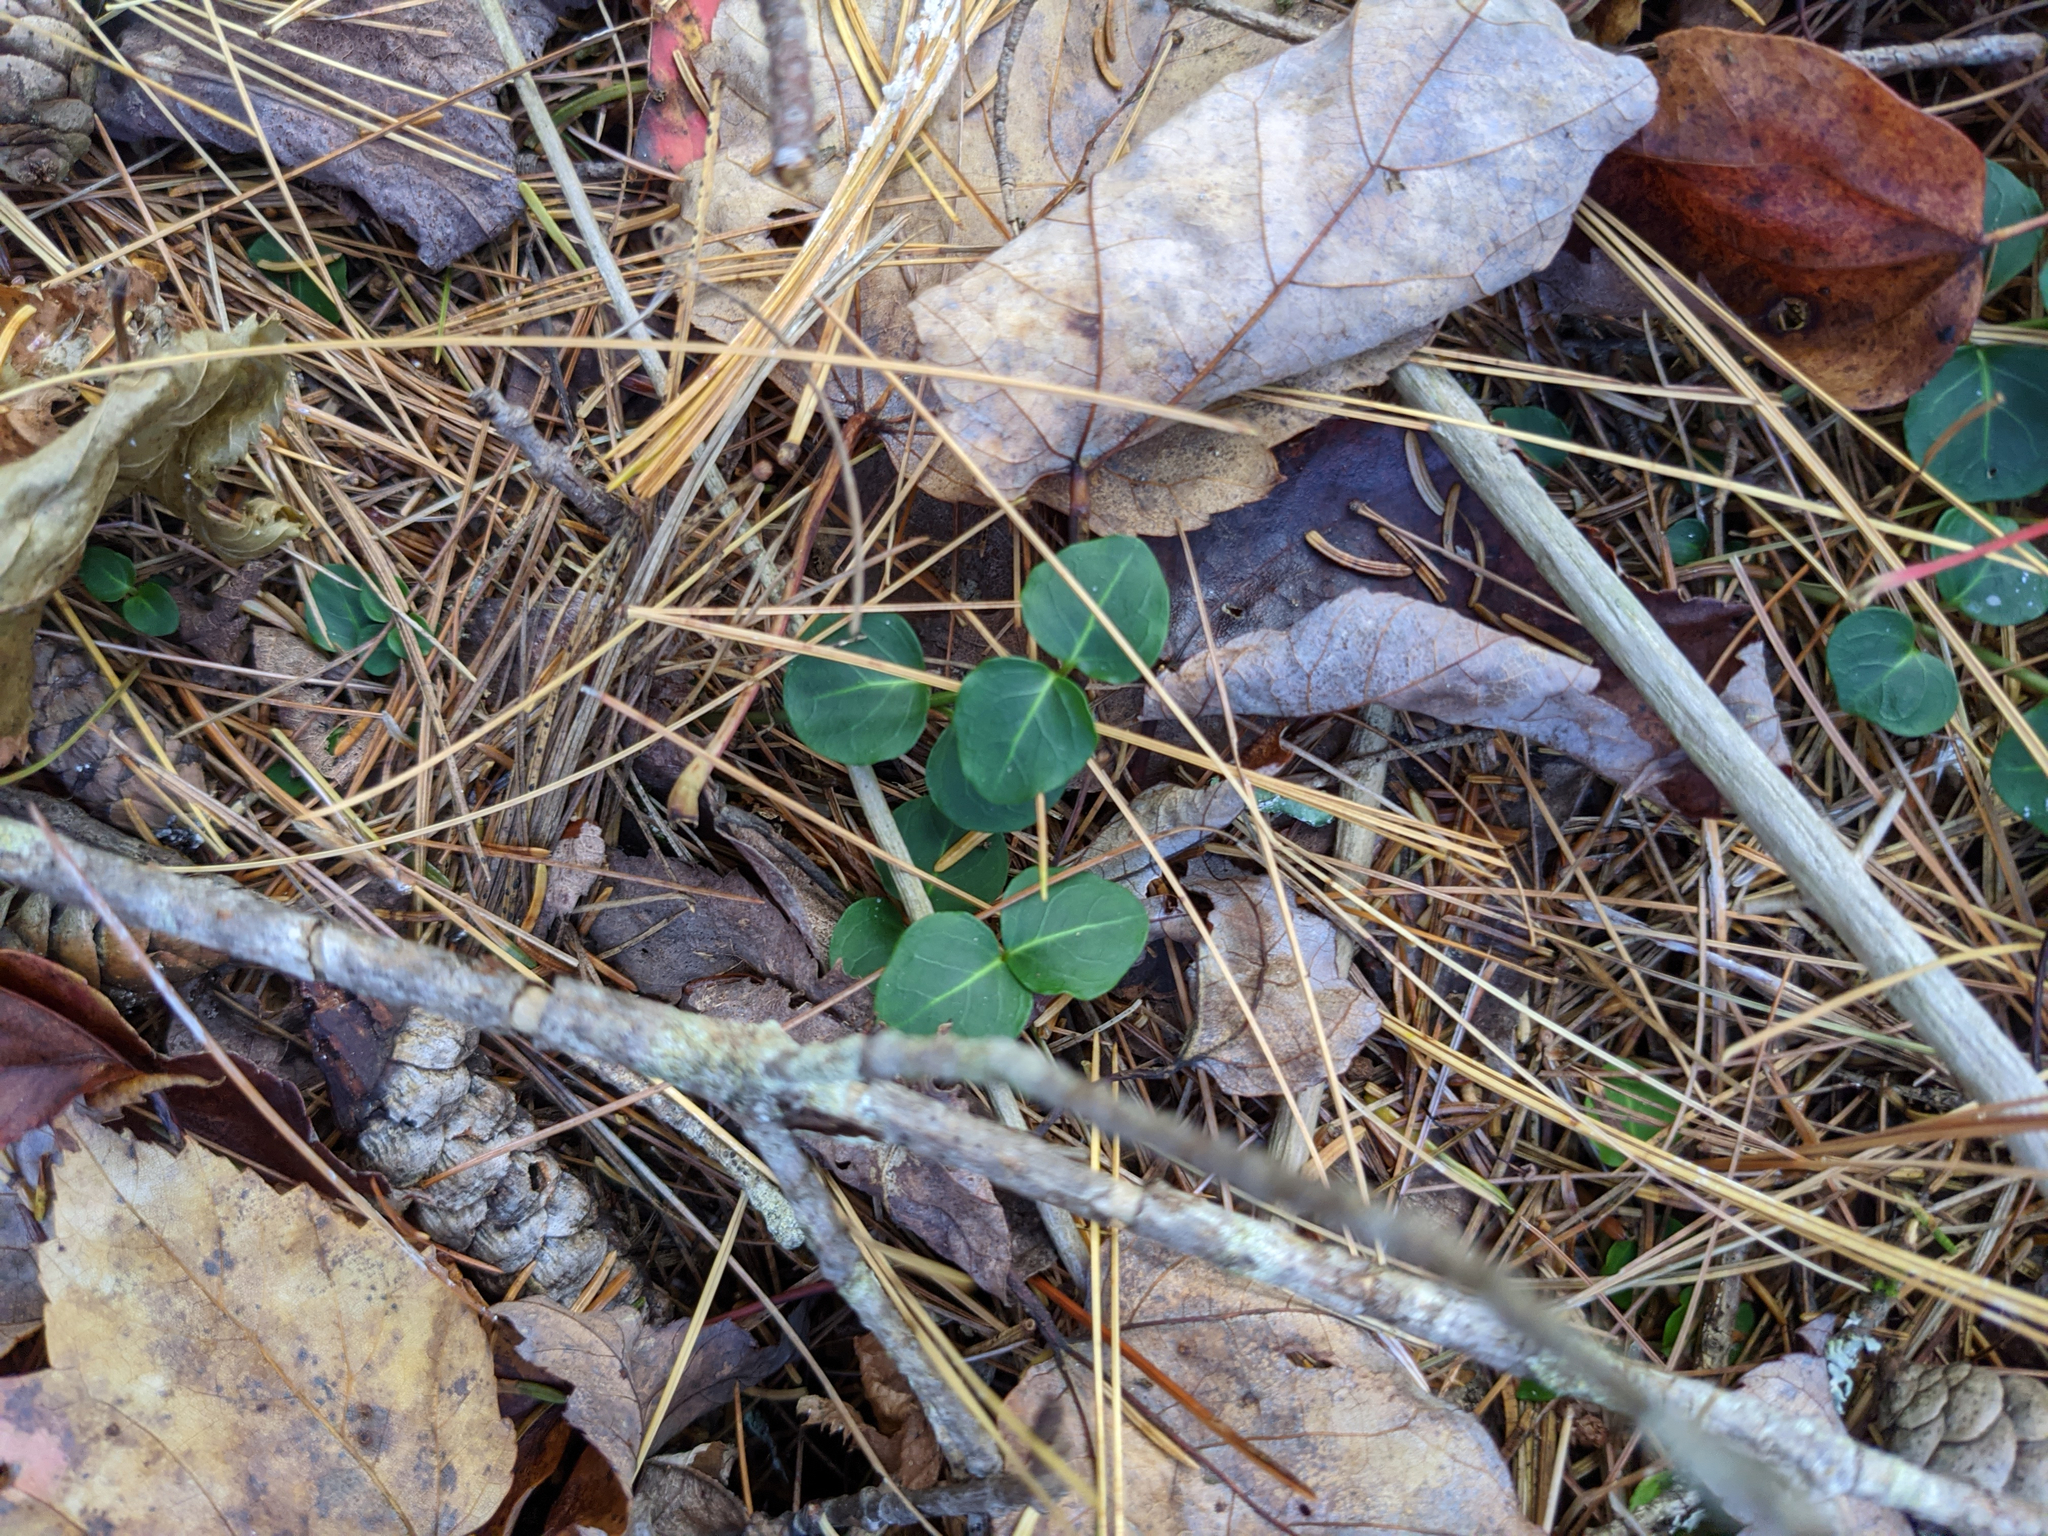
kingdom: Plantae
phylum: Tracheophyta
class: Magnoliopsida
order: Gentianales
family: Rubiaceae
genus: Mitchella
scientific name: Mitchella repens
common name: Partridge-berry
